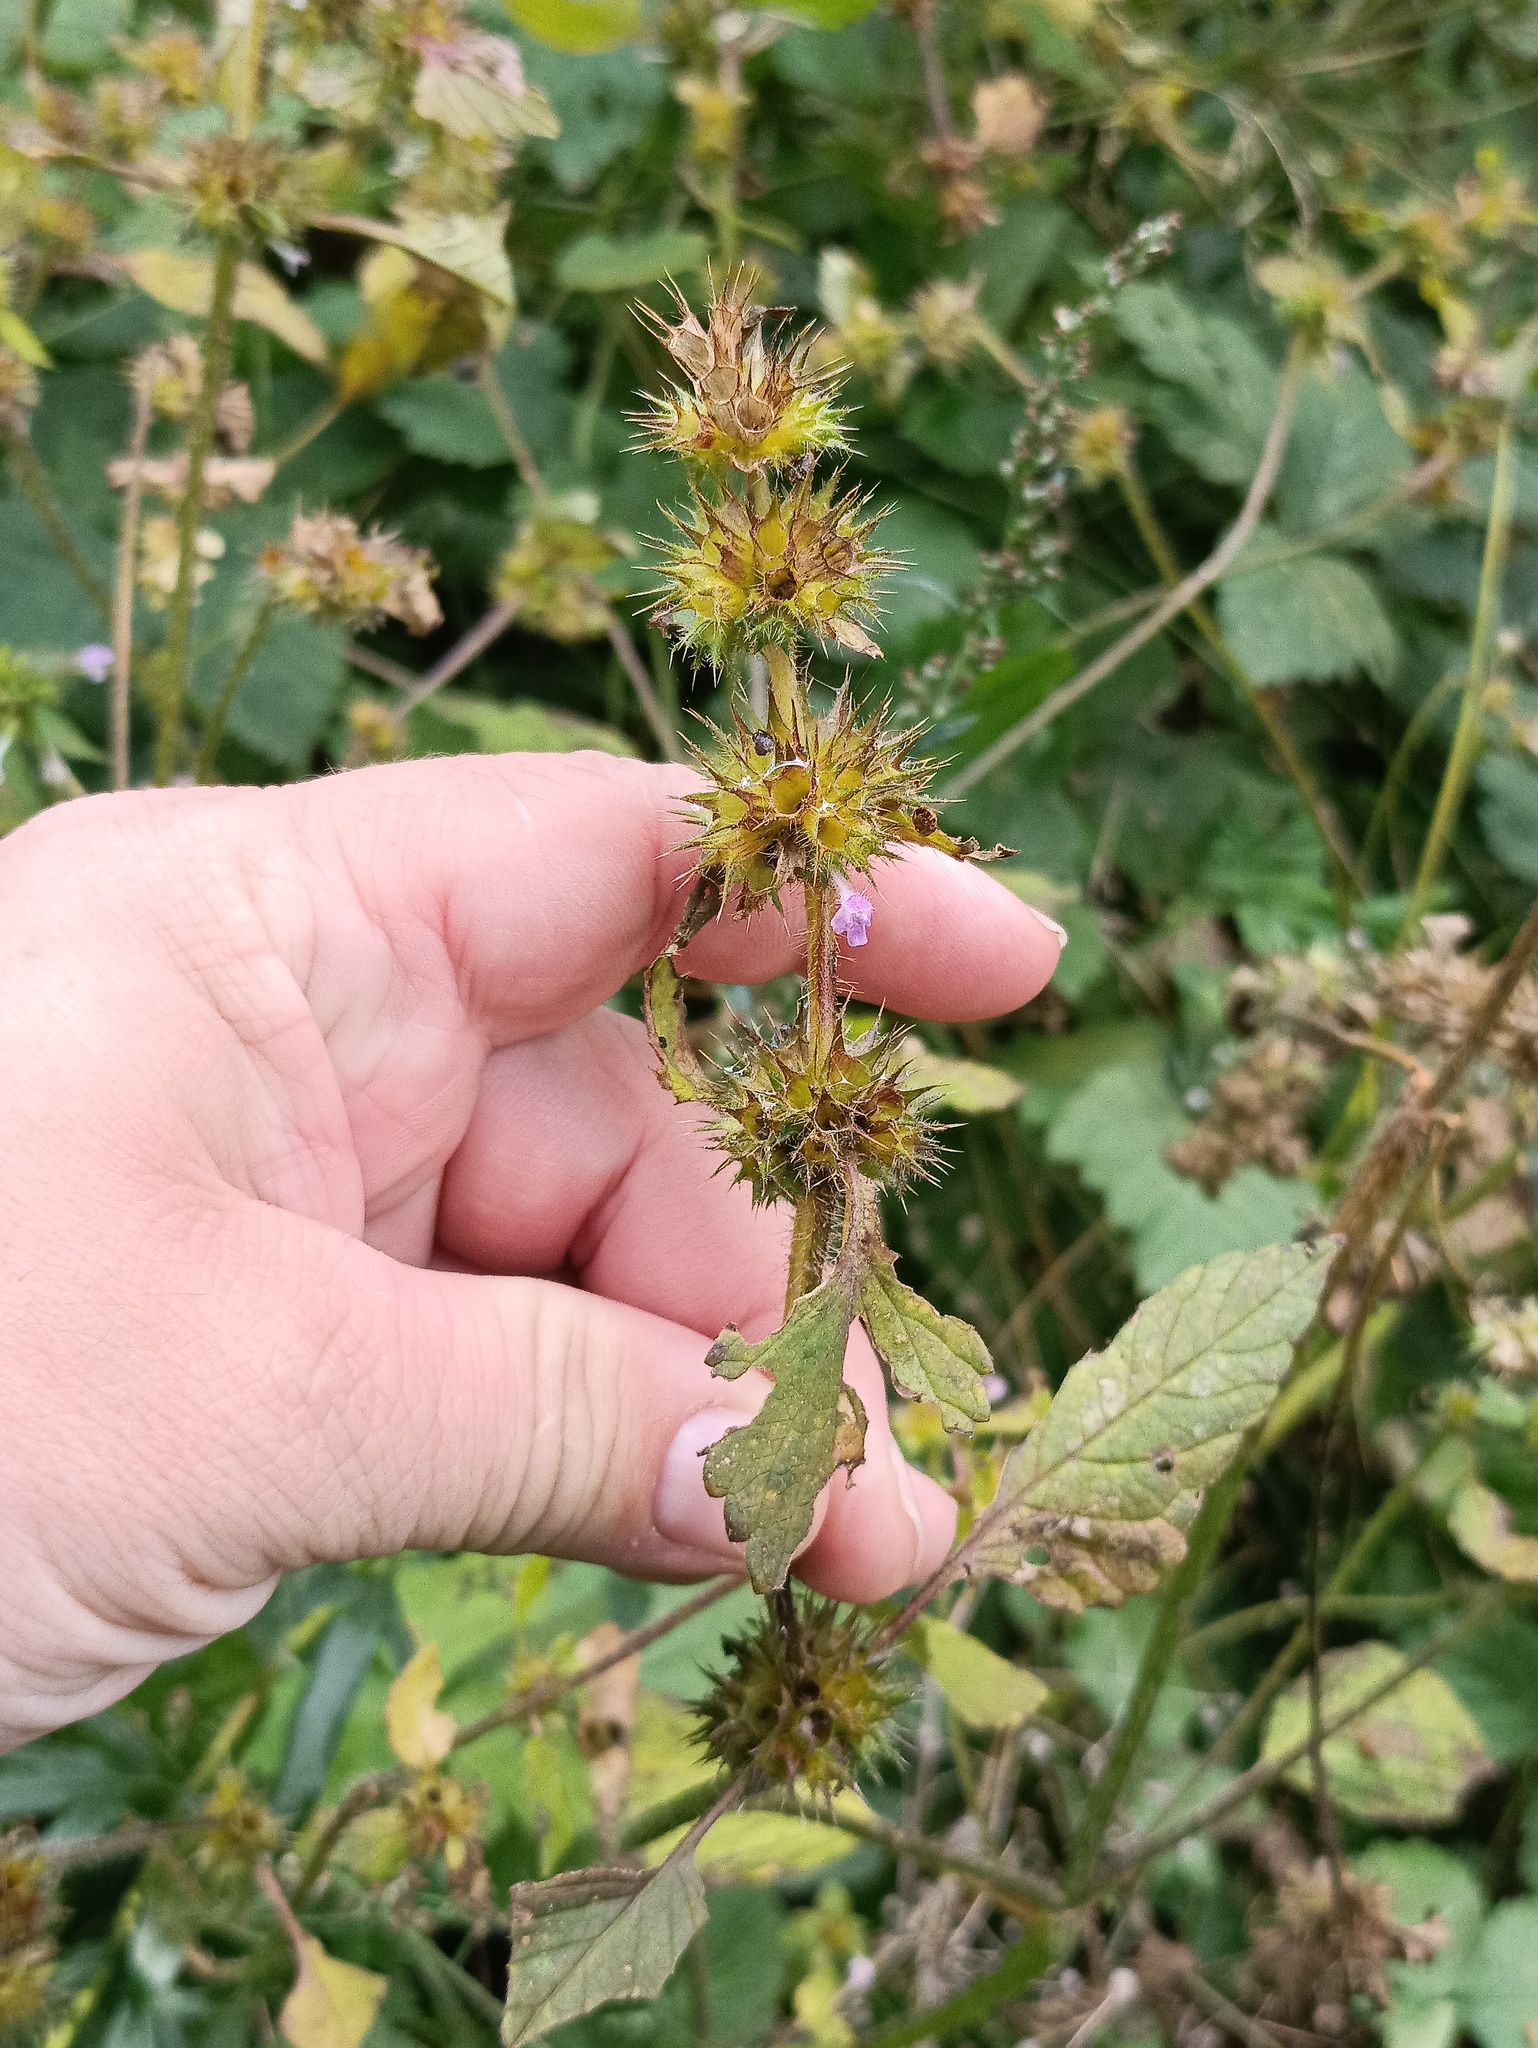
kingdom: Plantae
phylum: Tracheophyta
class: Magnoliopsida
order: Lamiales
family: Lamiaceae
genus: Galeopsis
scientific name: Galeopsis bifida
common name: Bifid hemp-nettle
